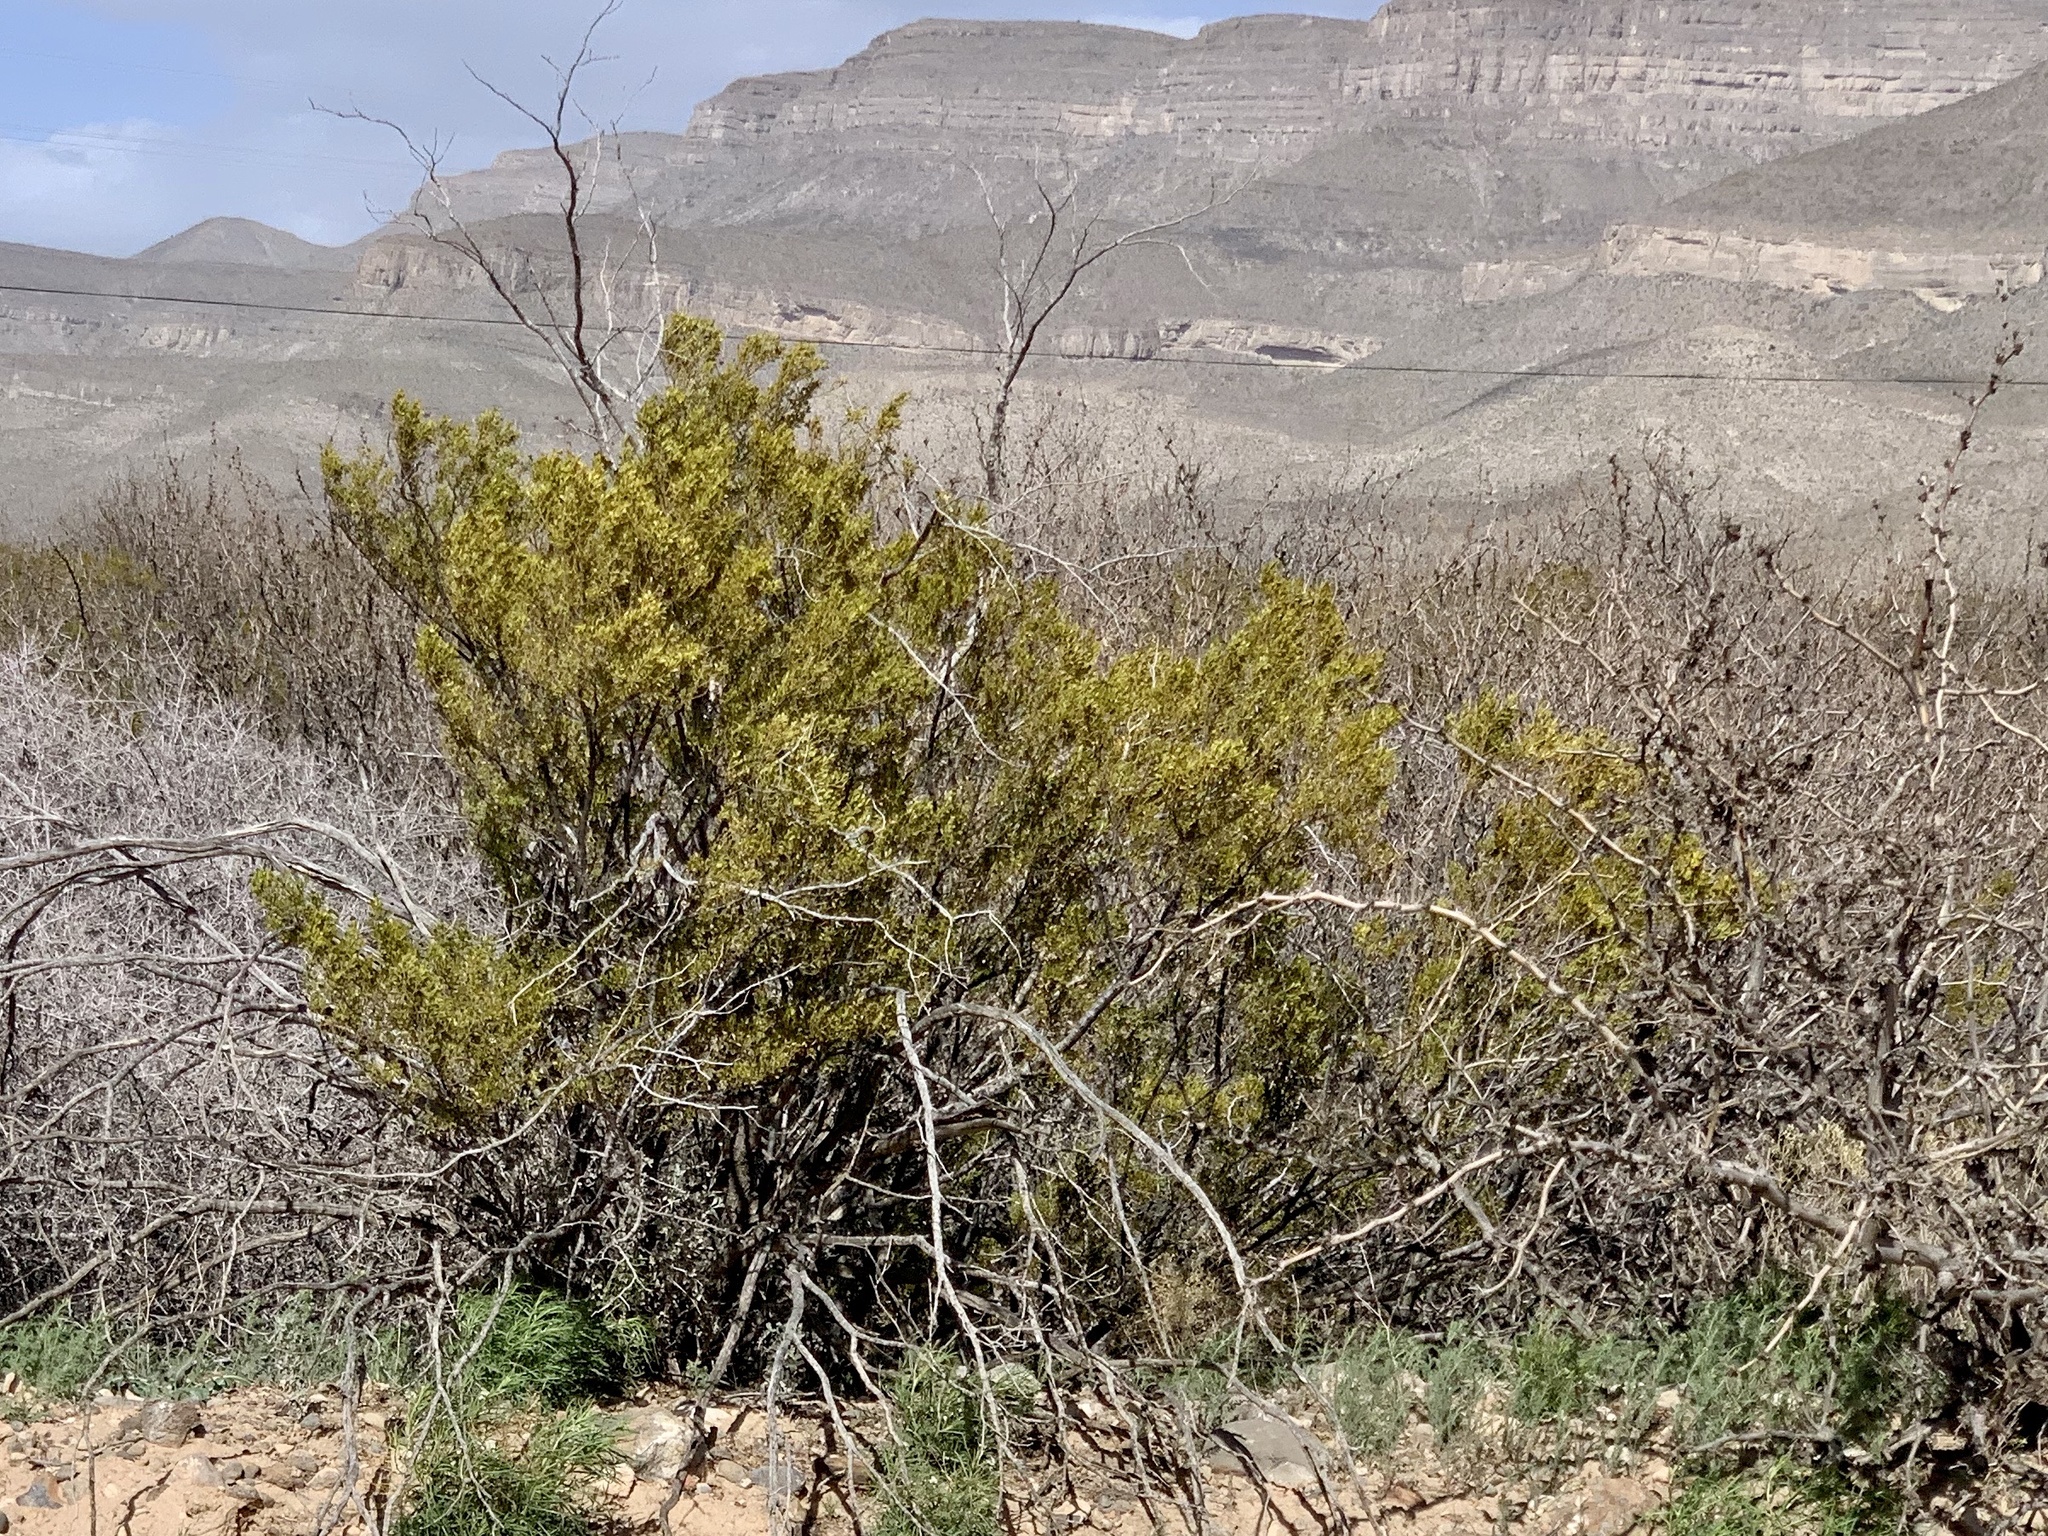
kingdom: Plantae
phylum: Tracheophyta
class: Magnoliopsida
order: Zygophyllales
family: Zygophyllaceae
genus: Larrea
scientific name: Larrea tridentata
